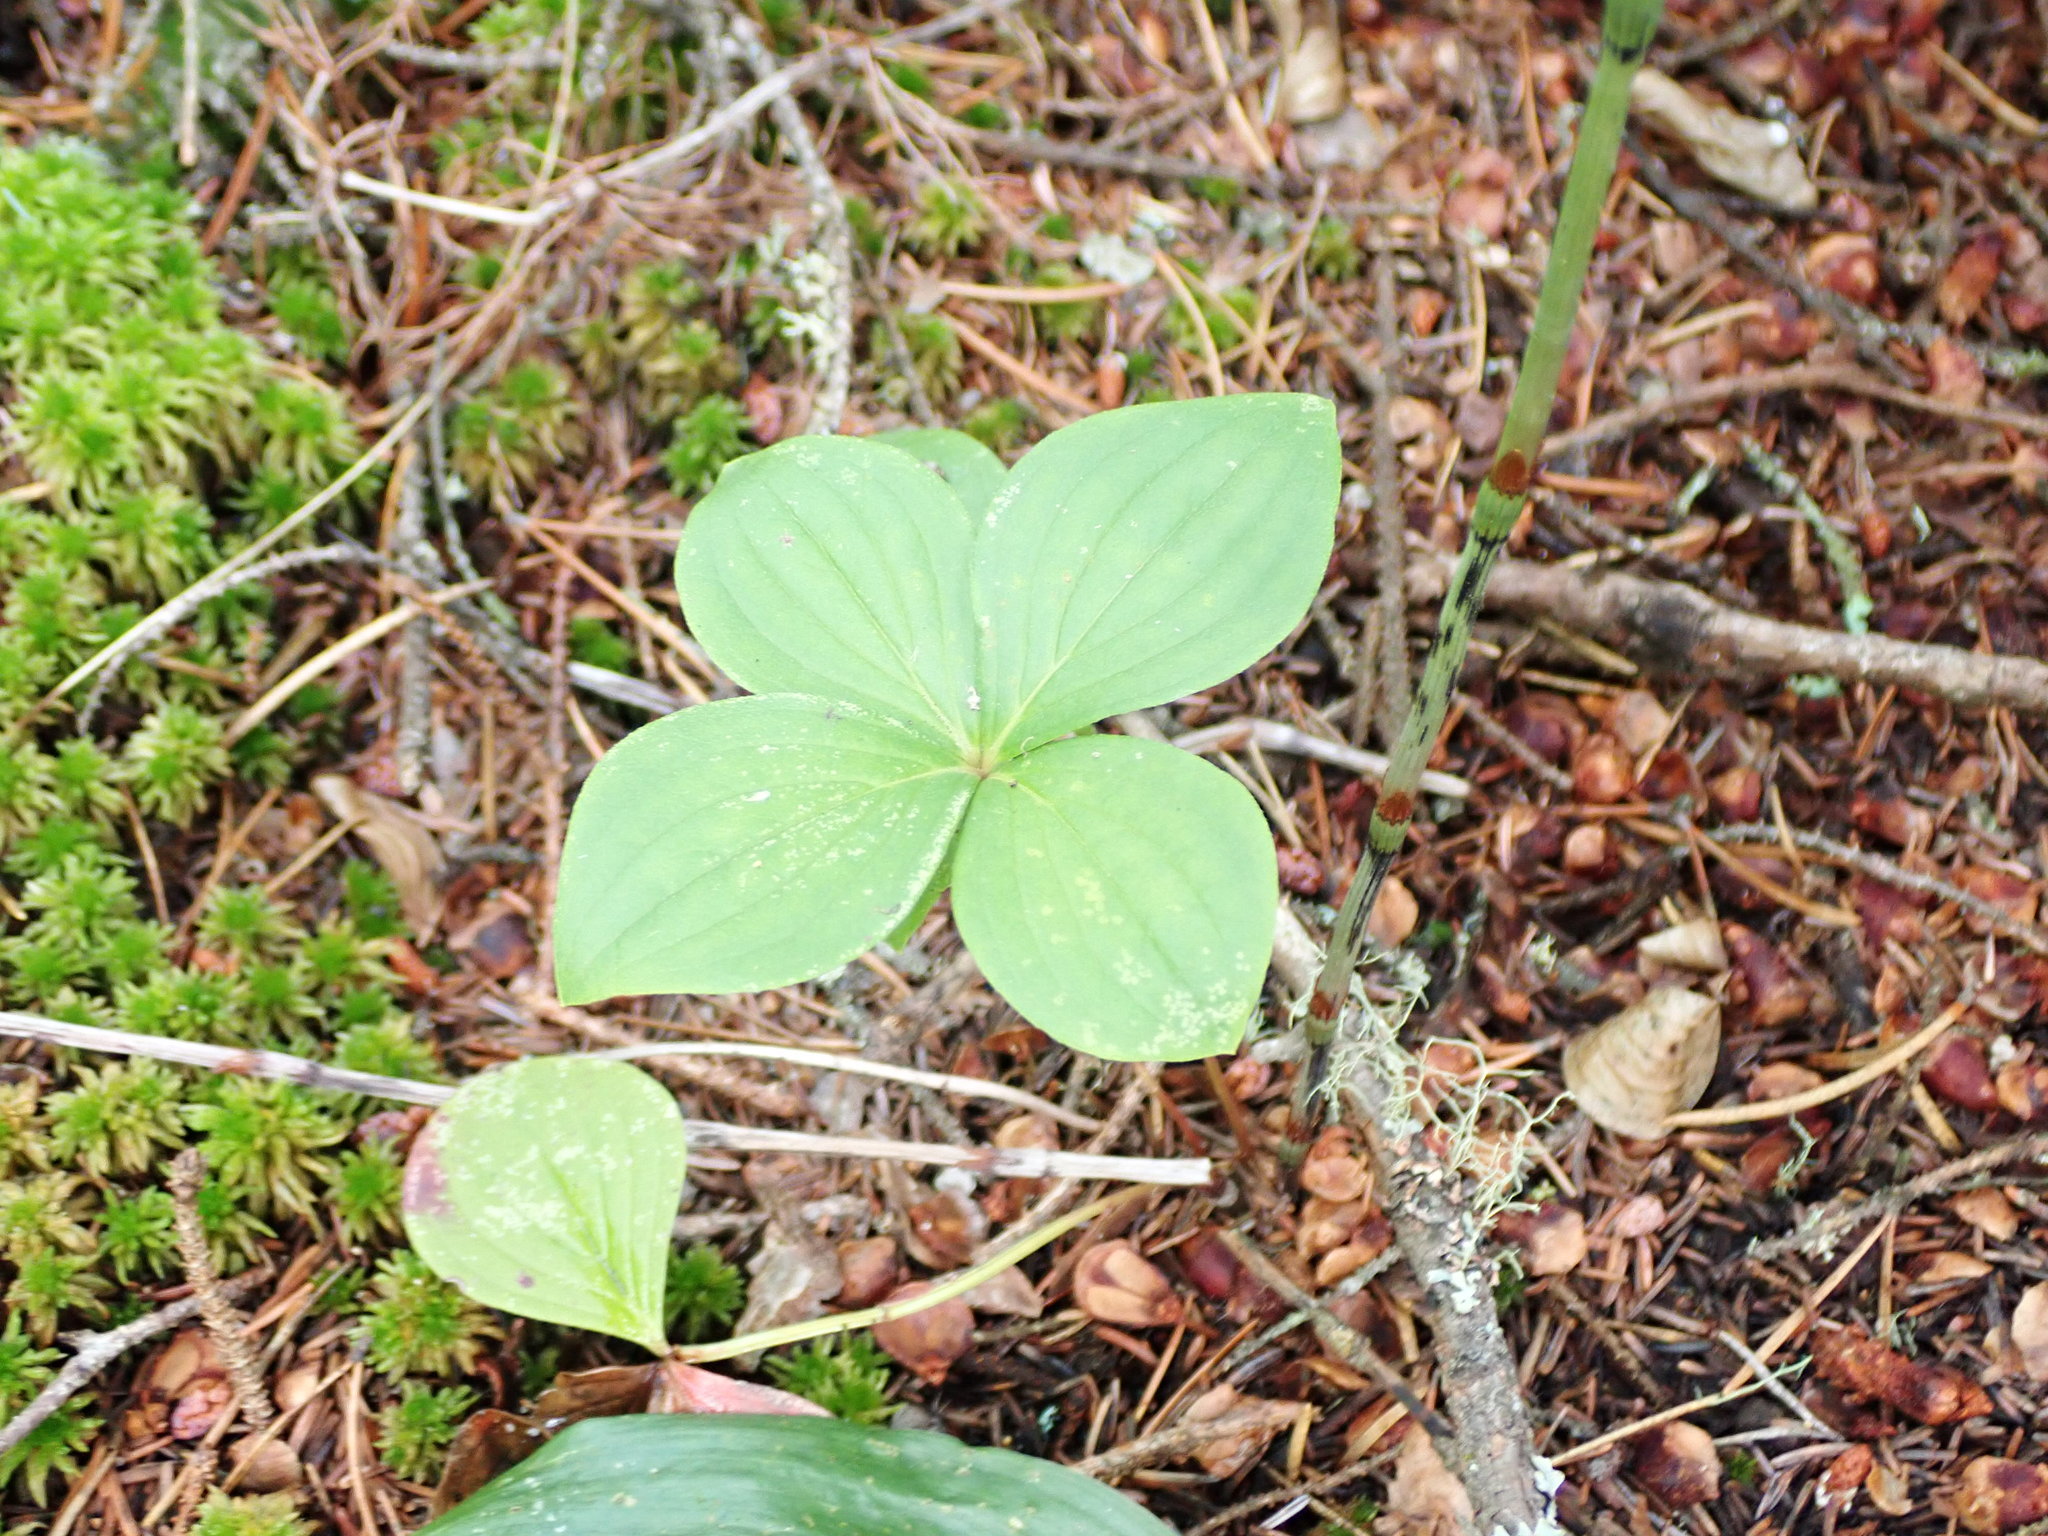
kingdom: Plantae
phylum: Tracheophyta
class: Magnoliopsida
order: Cornales
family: Cornaceae
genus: Cornus
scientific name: Cornus canadensis
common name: Creeping dogwood
